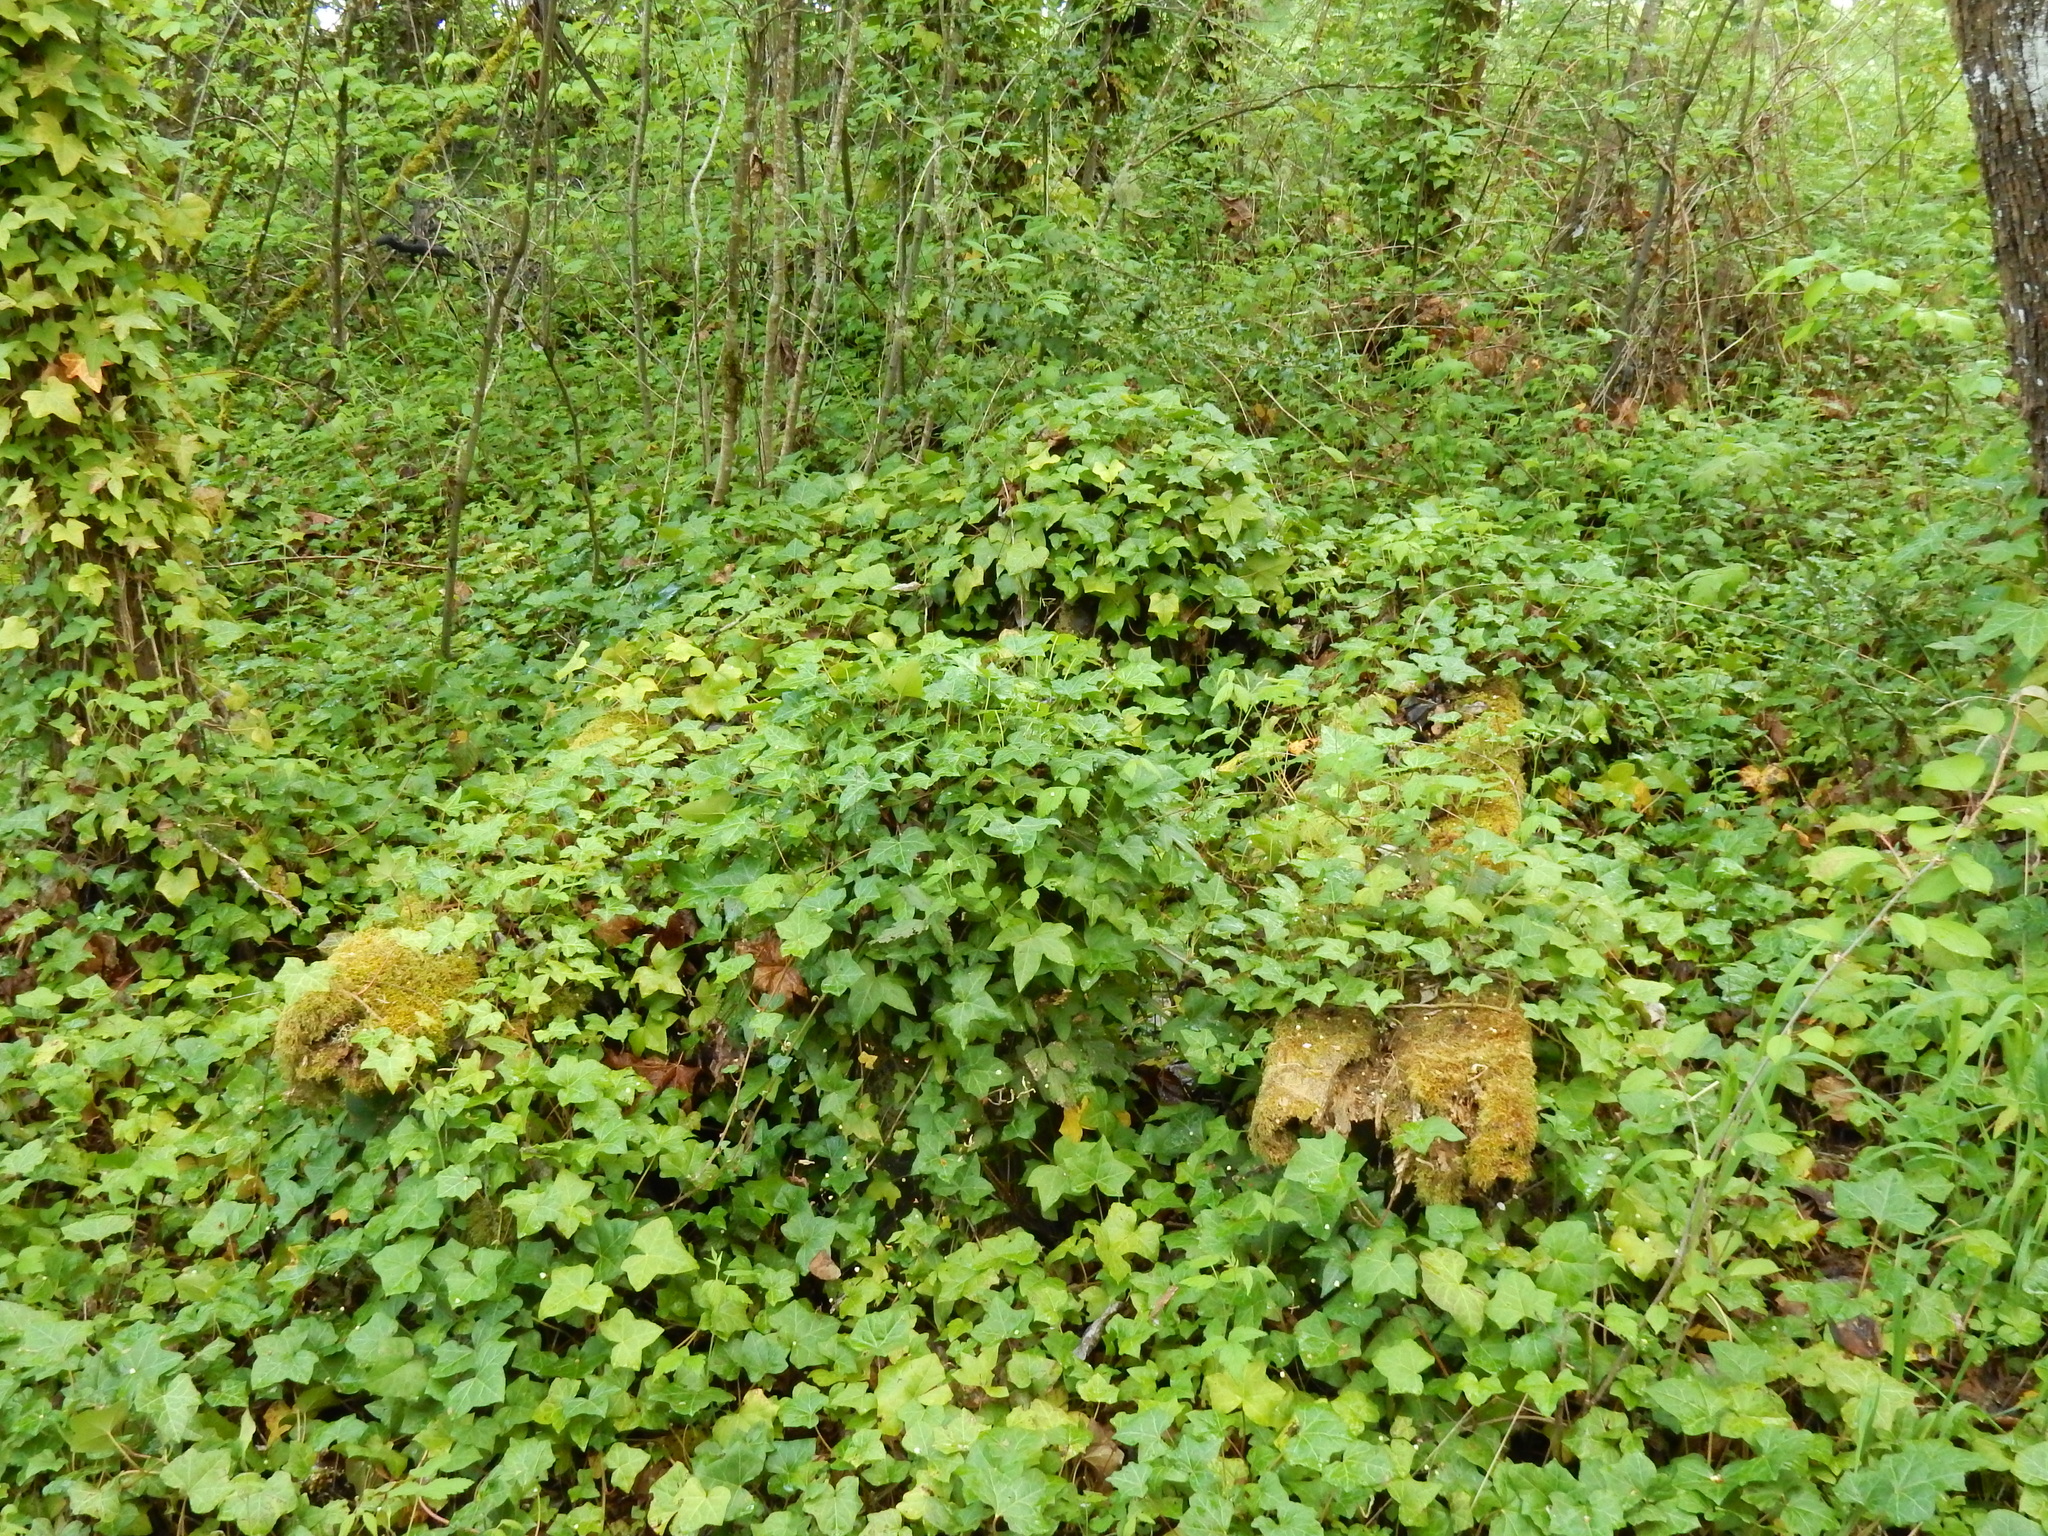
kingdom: Plantae
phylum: Tracheophyta
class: Magnoliopsida
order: Apiales
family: Araliaceae
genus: Hedera
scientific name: Hedera hibernica
